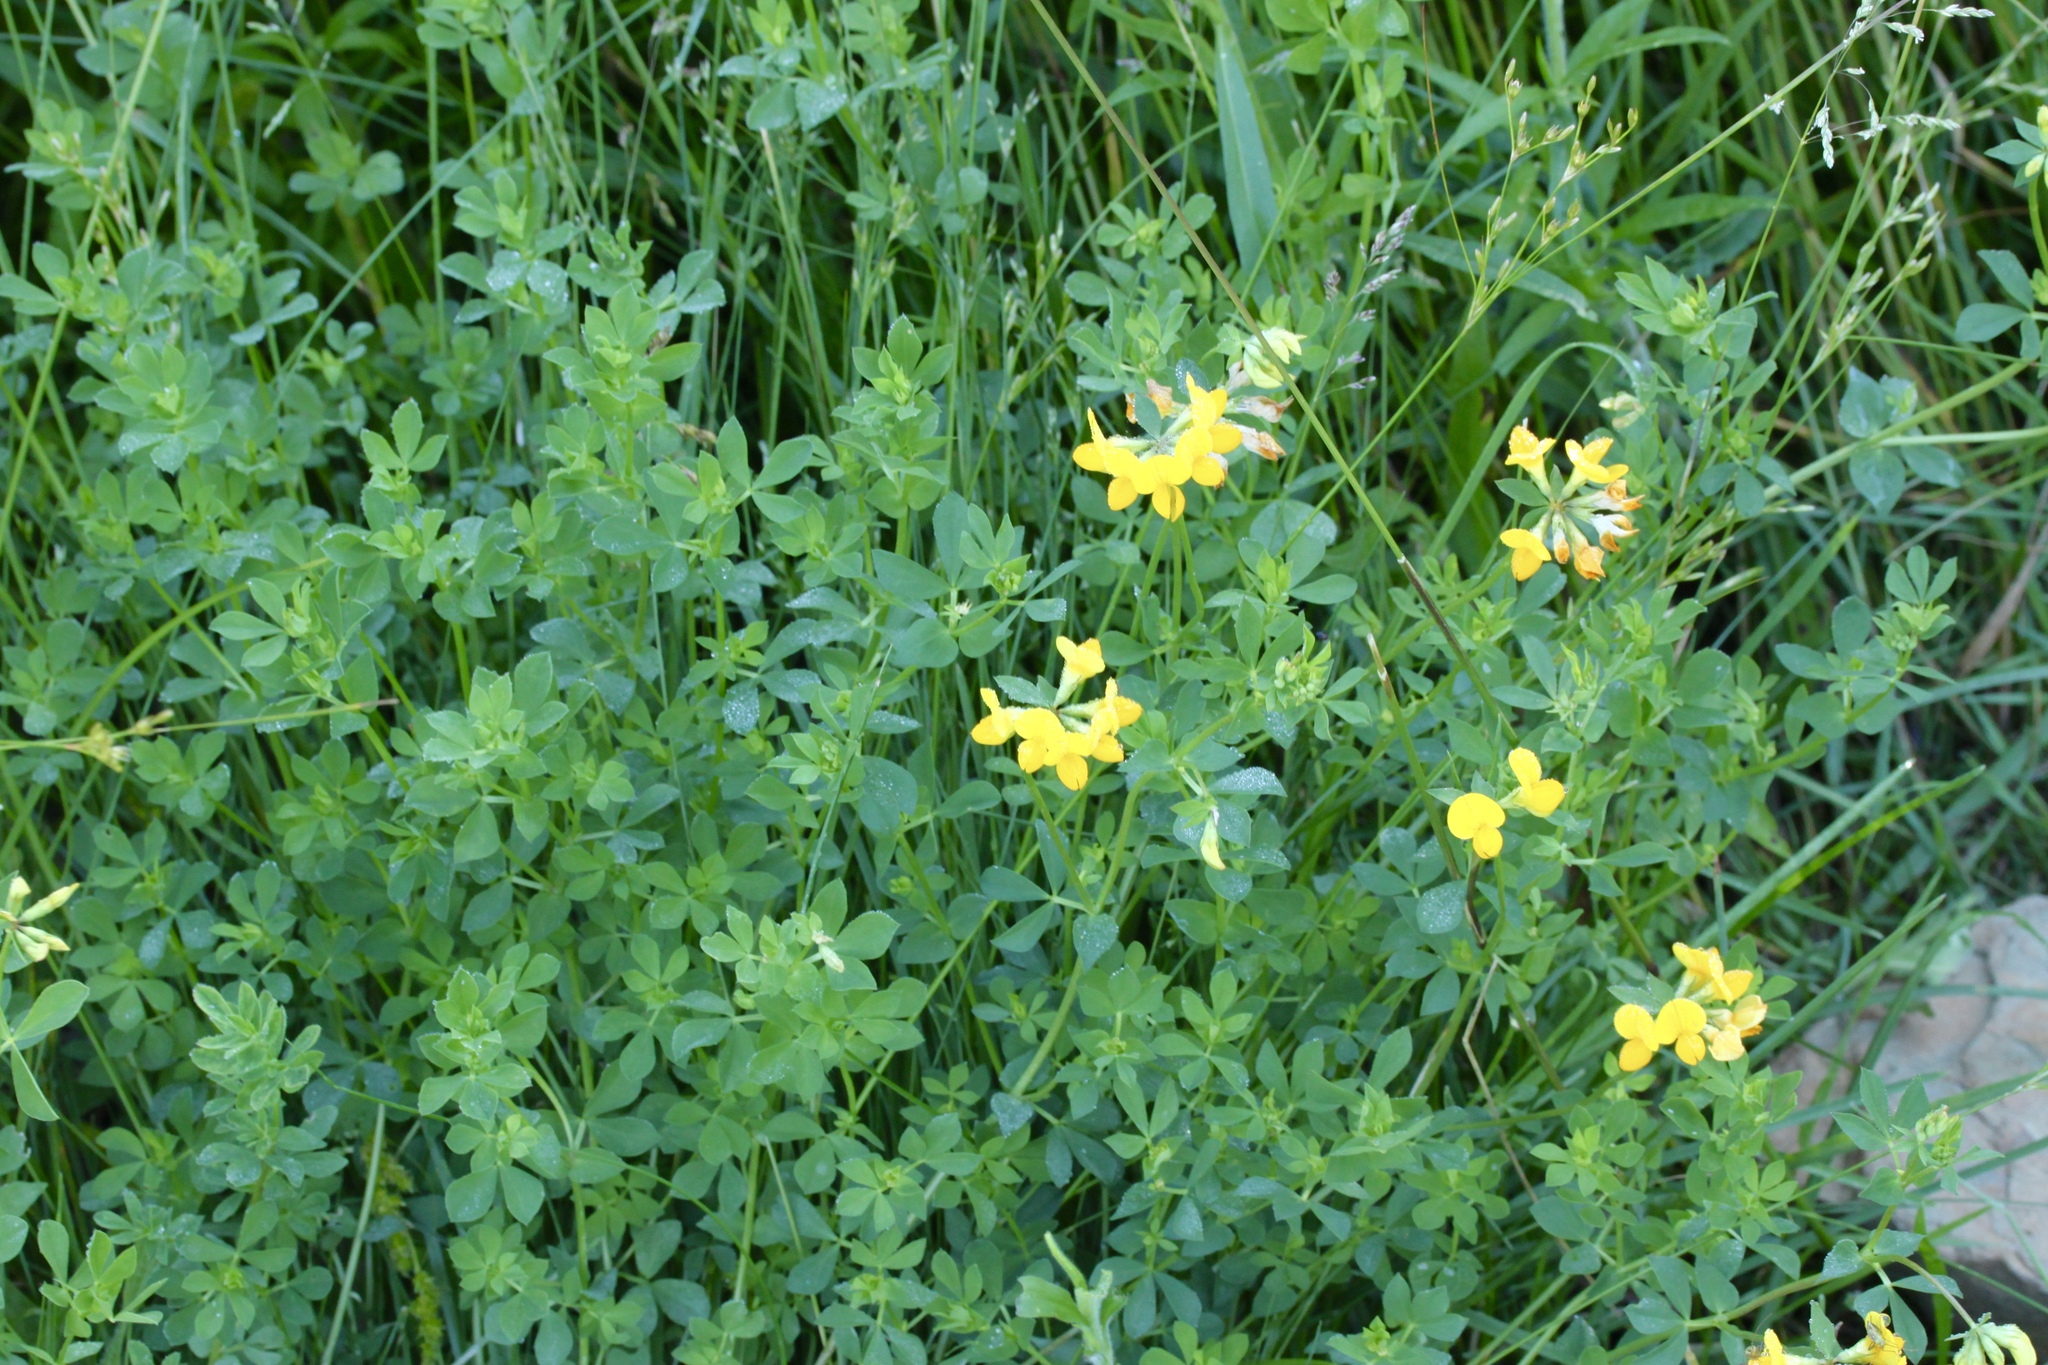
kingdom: Plantae
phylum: Tracheophyta
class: Magnoliopsida
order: Fabales
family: Fabaceae
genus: Lotus
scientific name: Lotus corniculatus
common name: Common bird's-foot-trefoil
